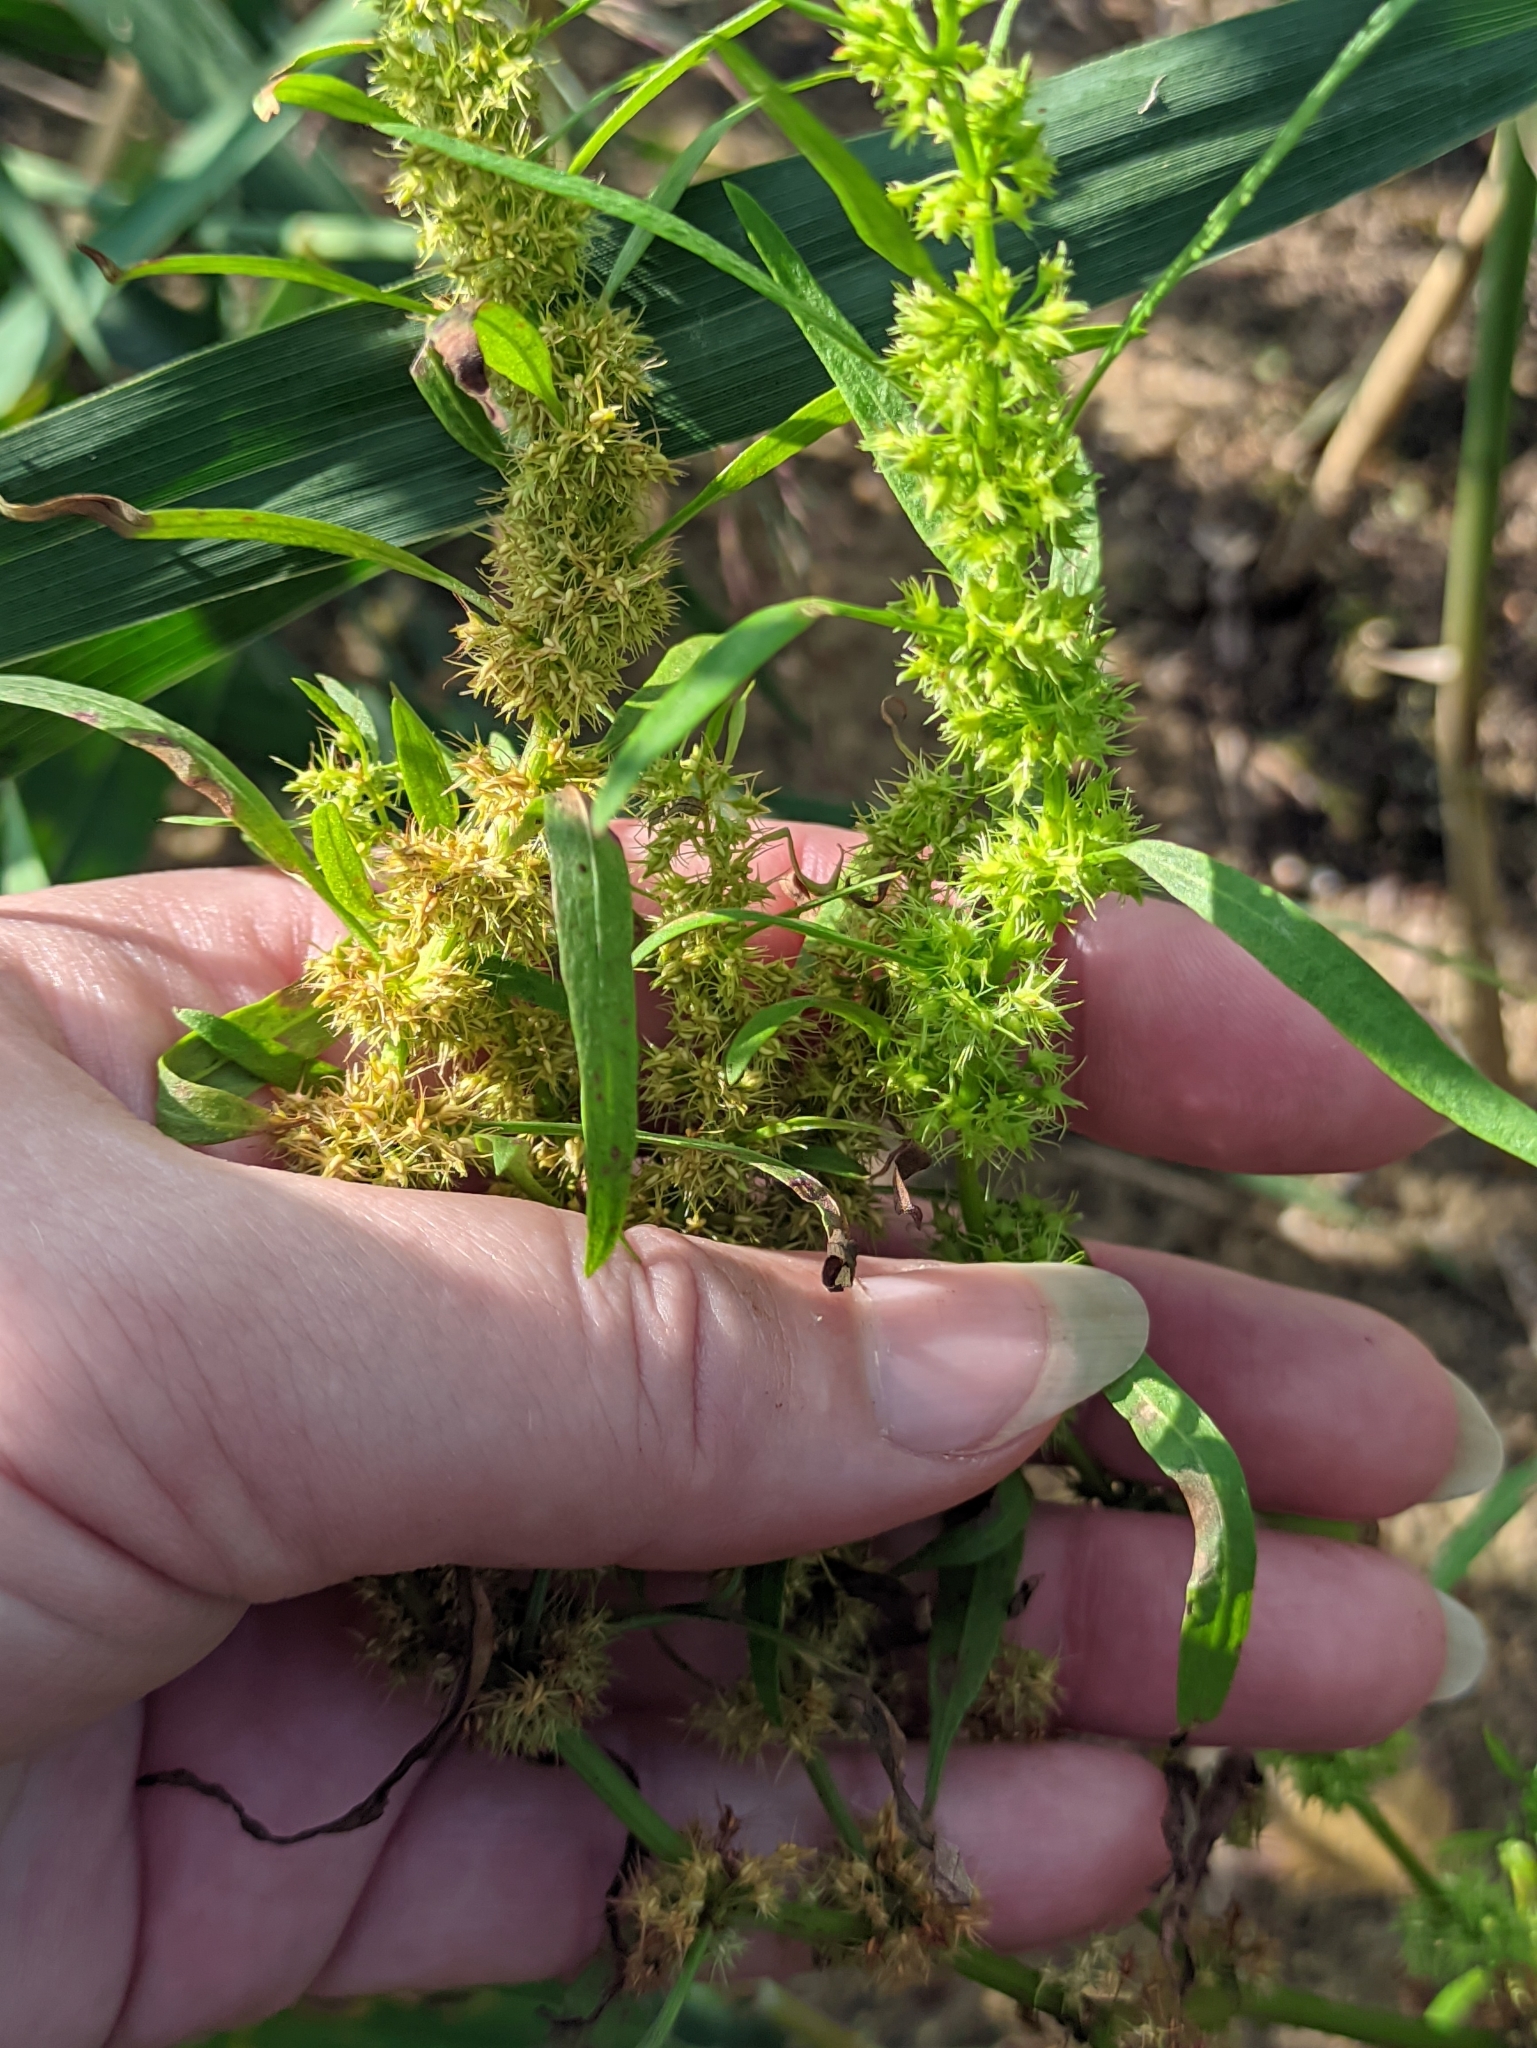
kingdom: Plantae
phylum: Tracheophyta
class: Magnoliopsida
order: Caryophyllales
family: Polygonaceae
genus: Rumex
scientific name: Rumex maritimus
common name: Golden dock
